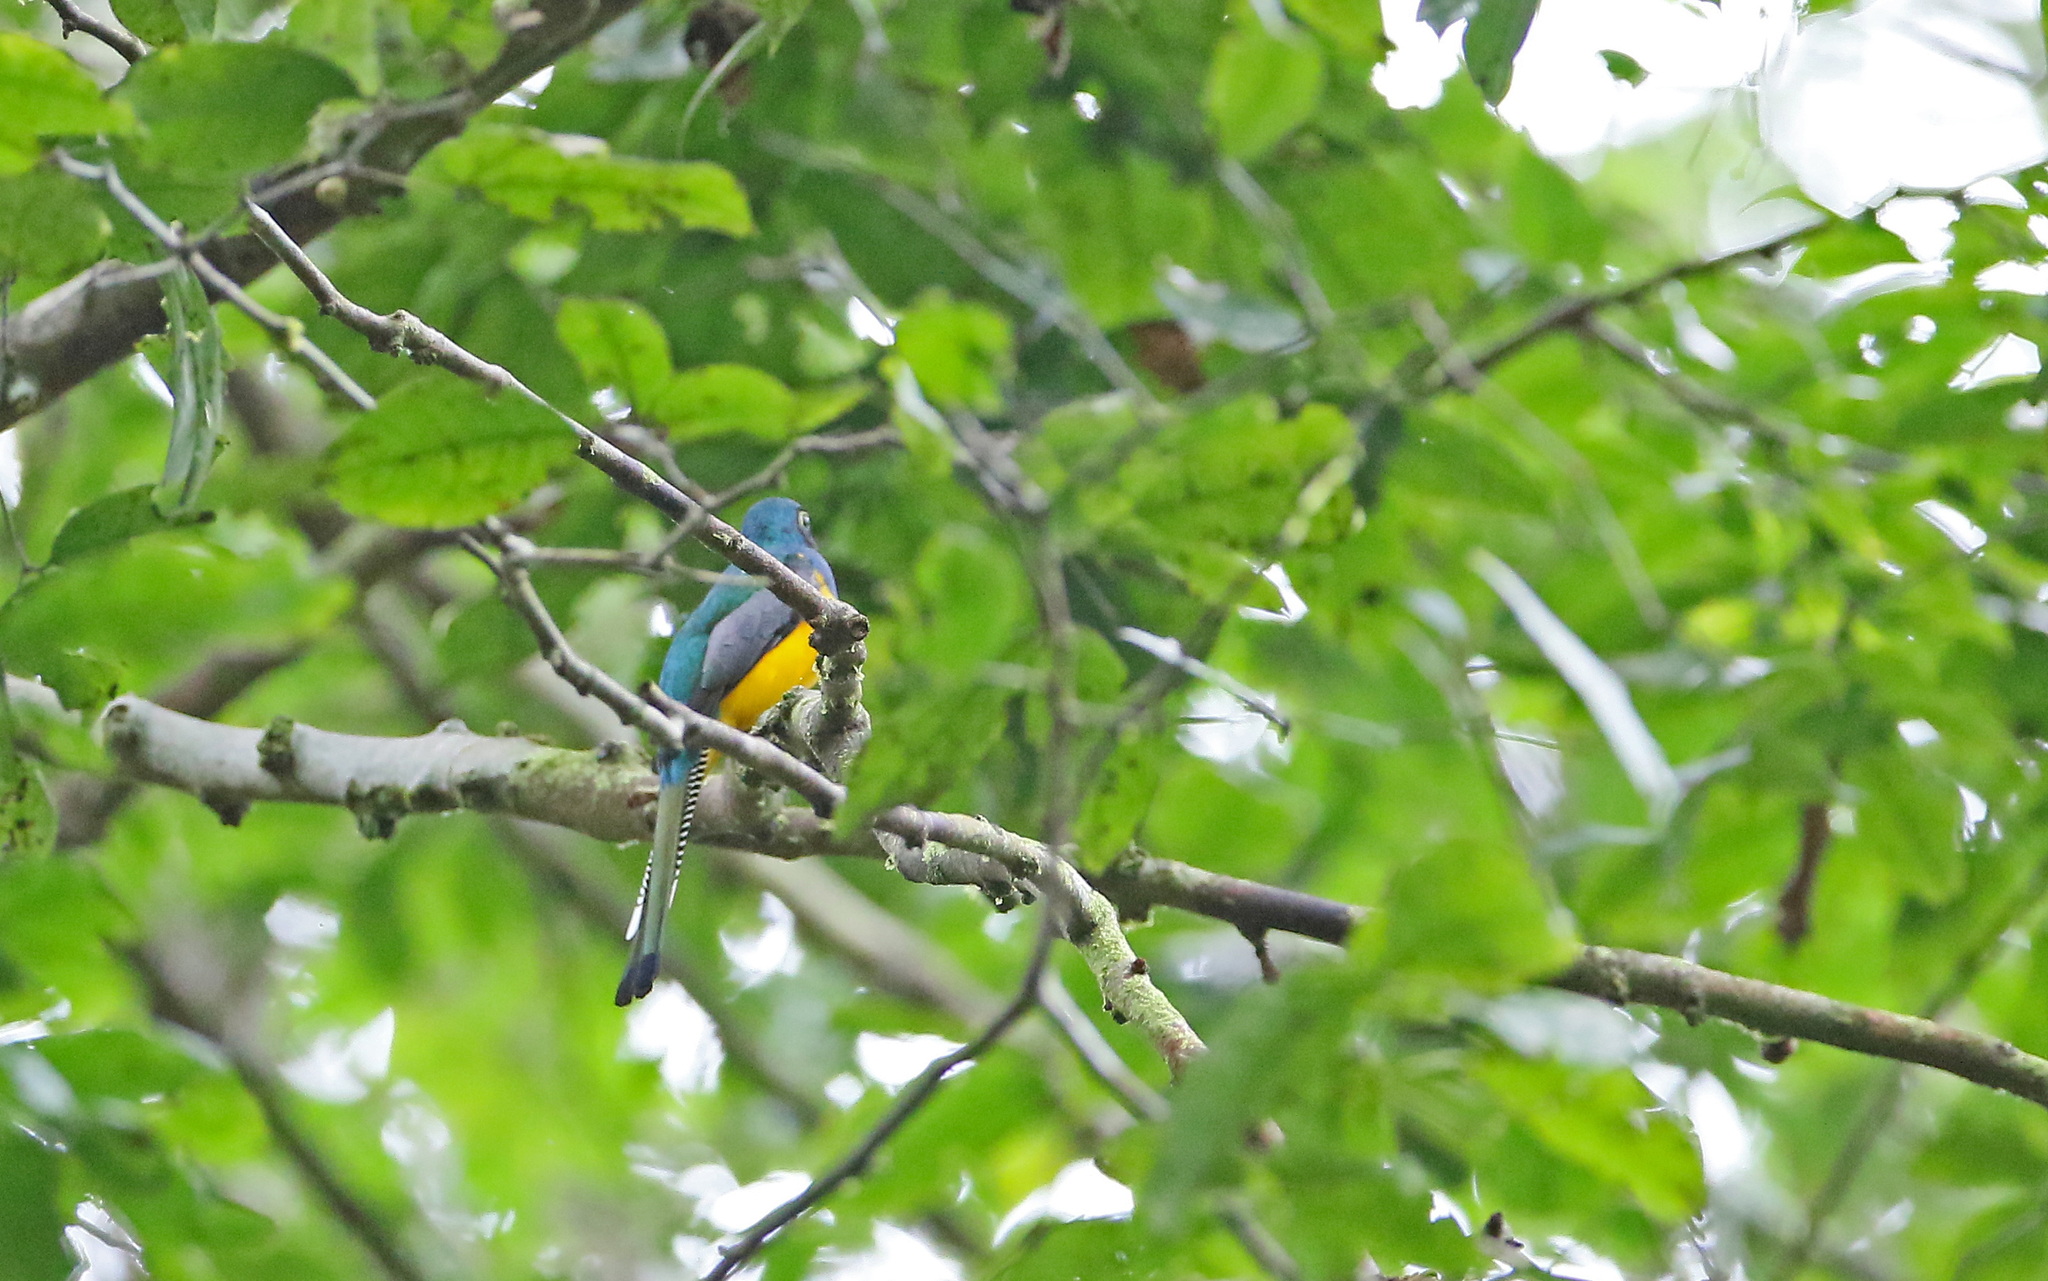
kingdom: Animalia
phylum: Chordata
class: Aves
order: Trogoniformes
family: Trogonidae
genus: Trogon
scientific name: Trogon rufus
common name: Black-throated trogon
